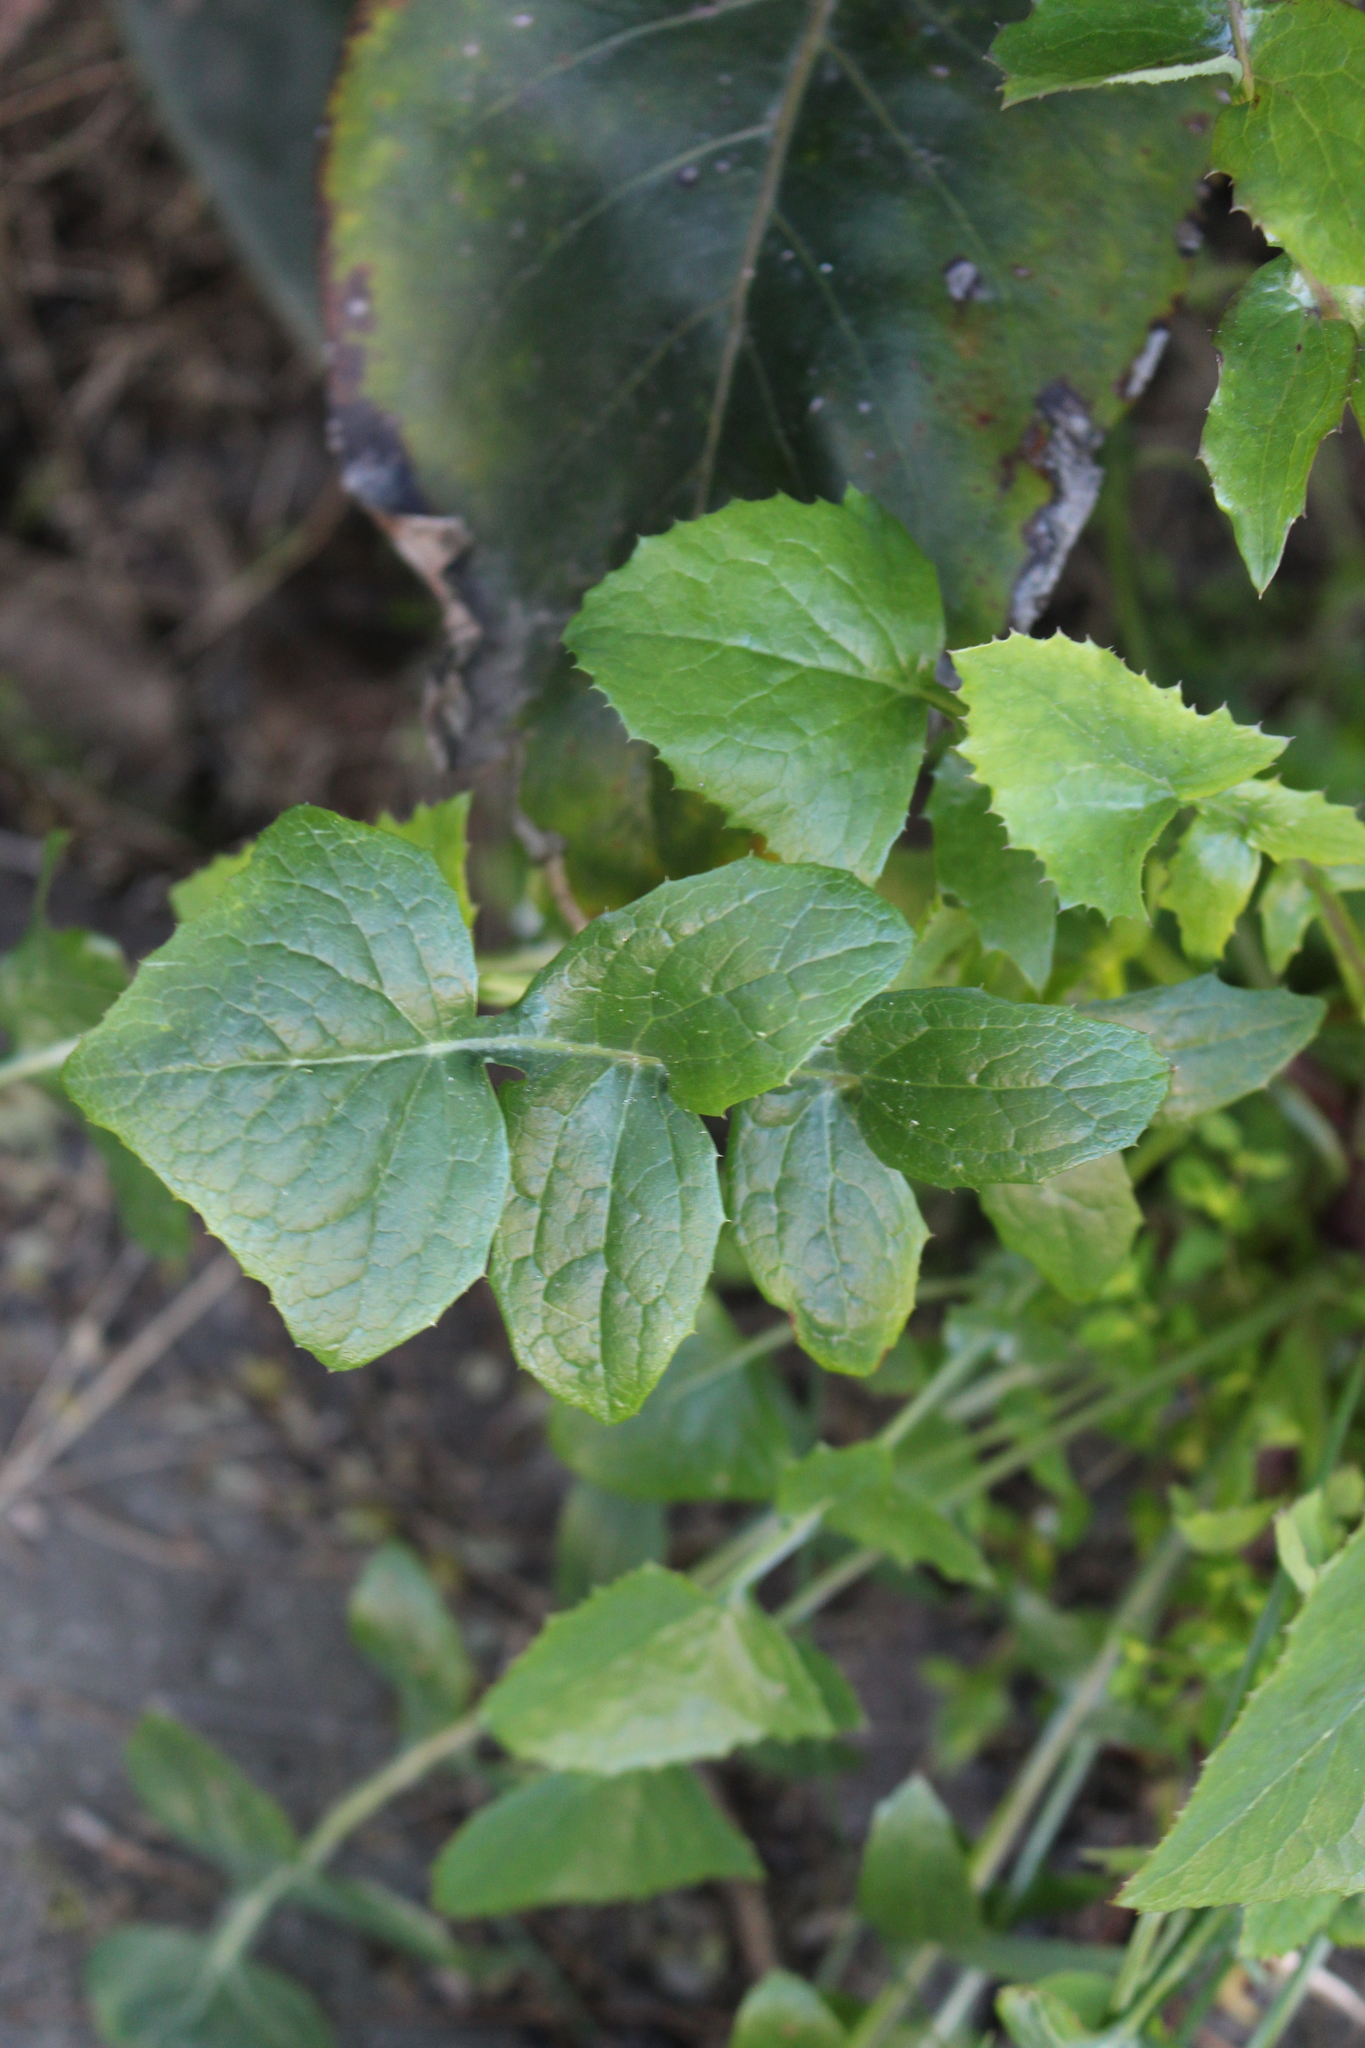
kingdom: Plantae
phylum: Tracheophyta
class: Magnoliopsida
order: Asterales
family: Asteraceae
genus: Sonchus
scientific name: Sonchus oleraceus
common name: Common sowthistle
